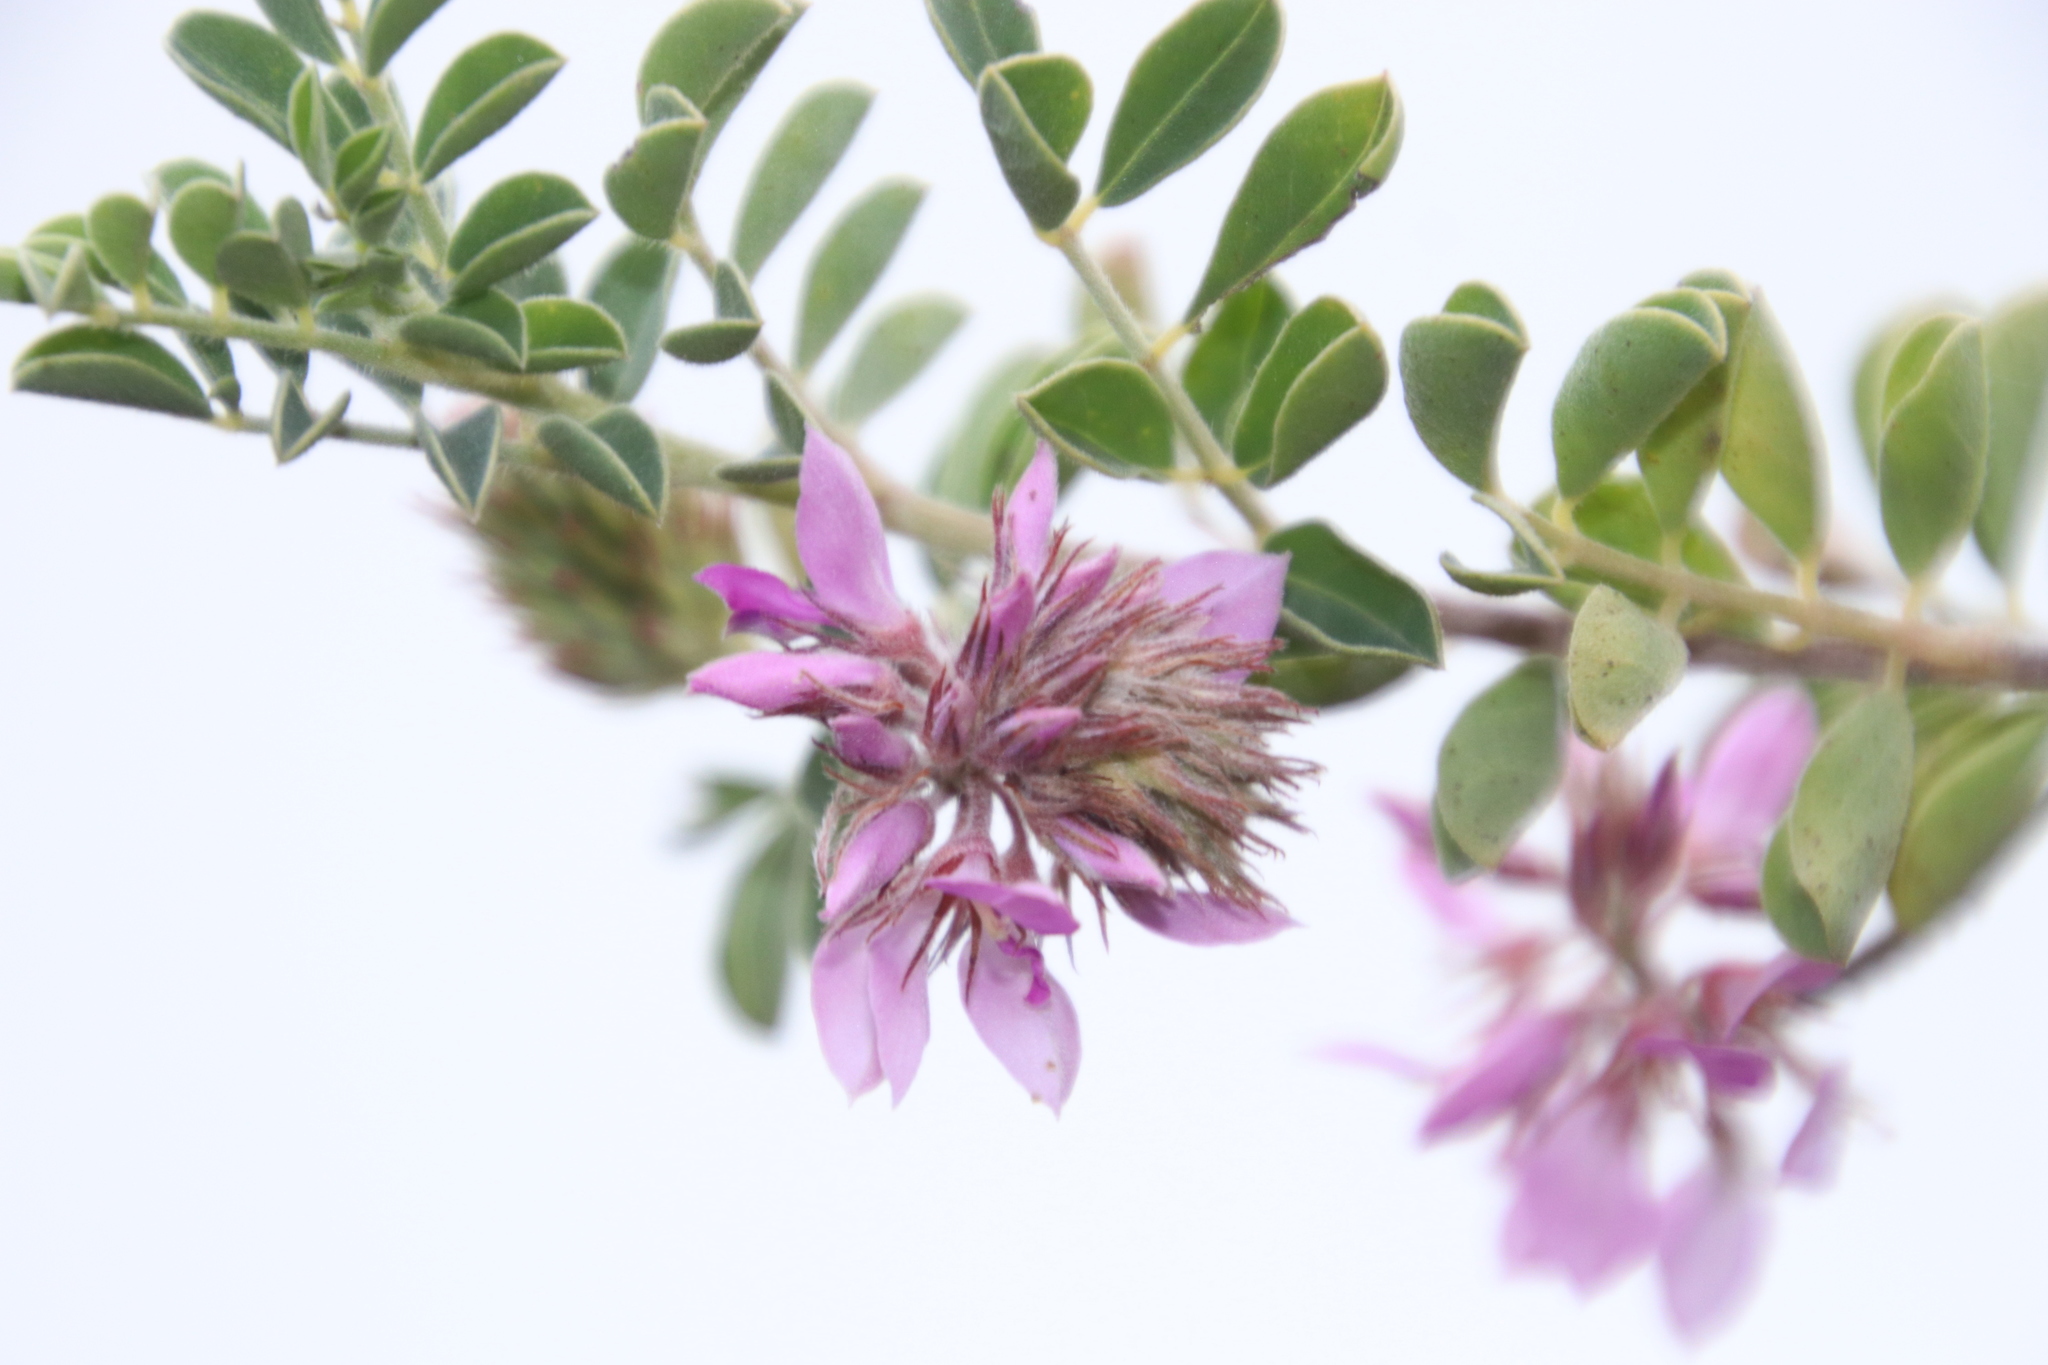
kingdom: Plantae
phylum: Tracheophyta
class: Magnoliopsida
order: Fabales
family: Fabaceae
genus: Indigofera
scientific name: Indigofera superba
